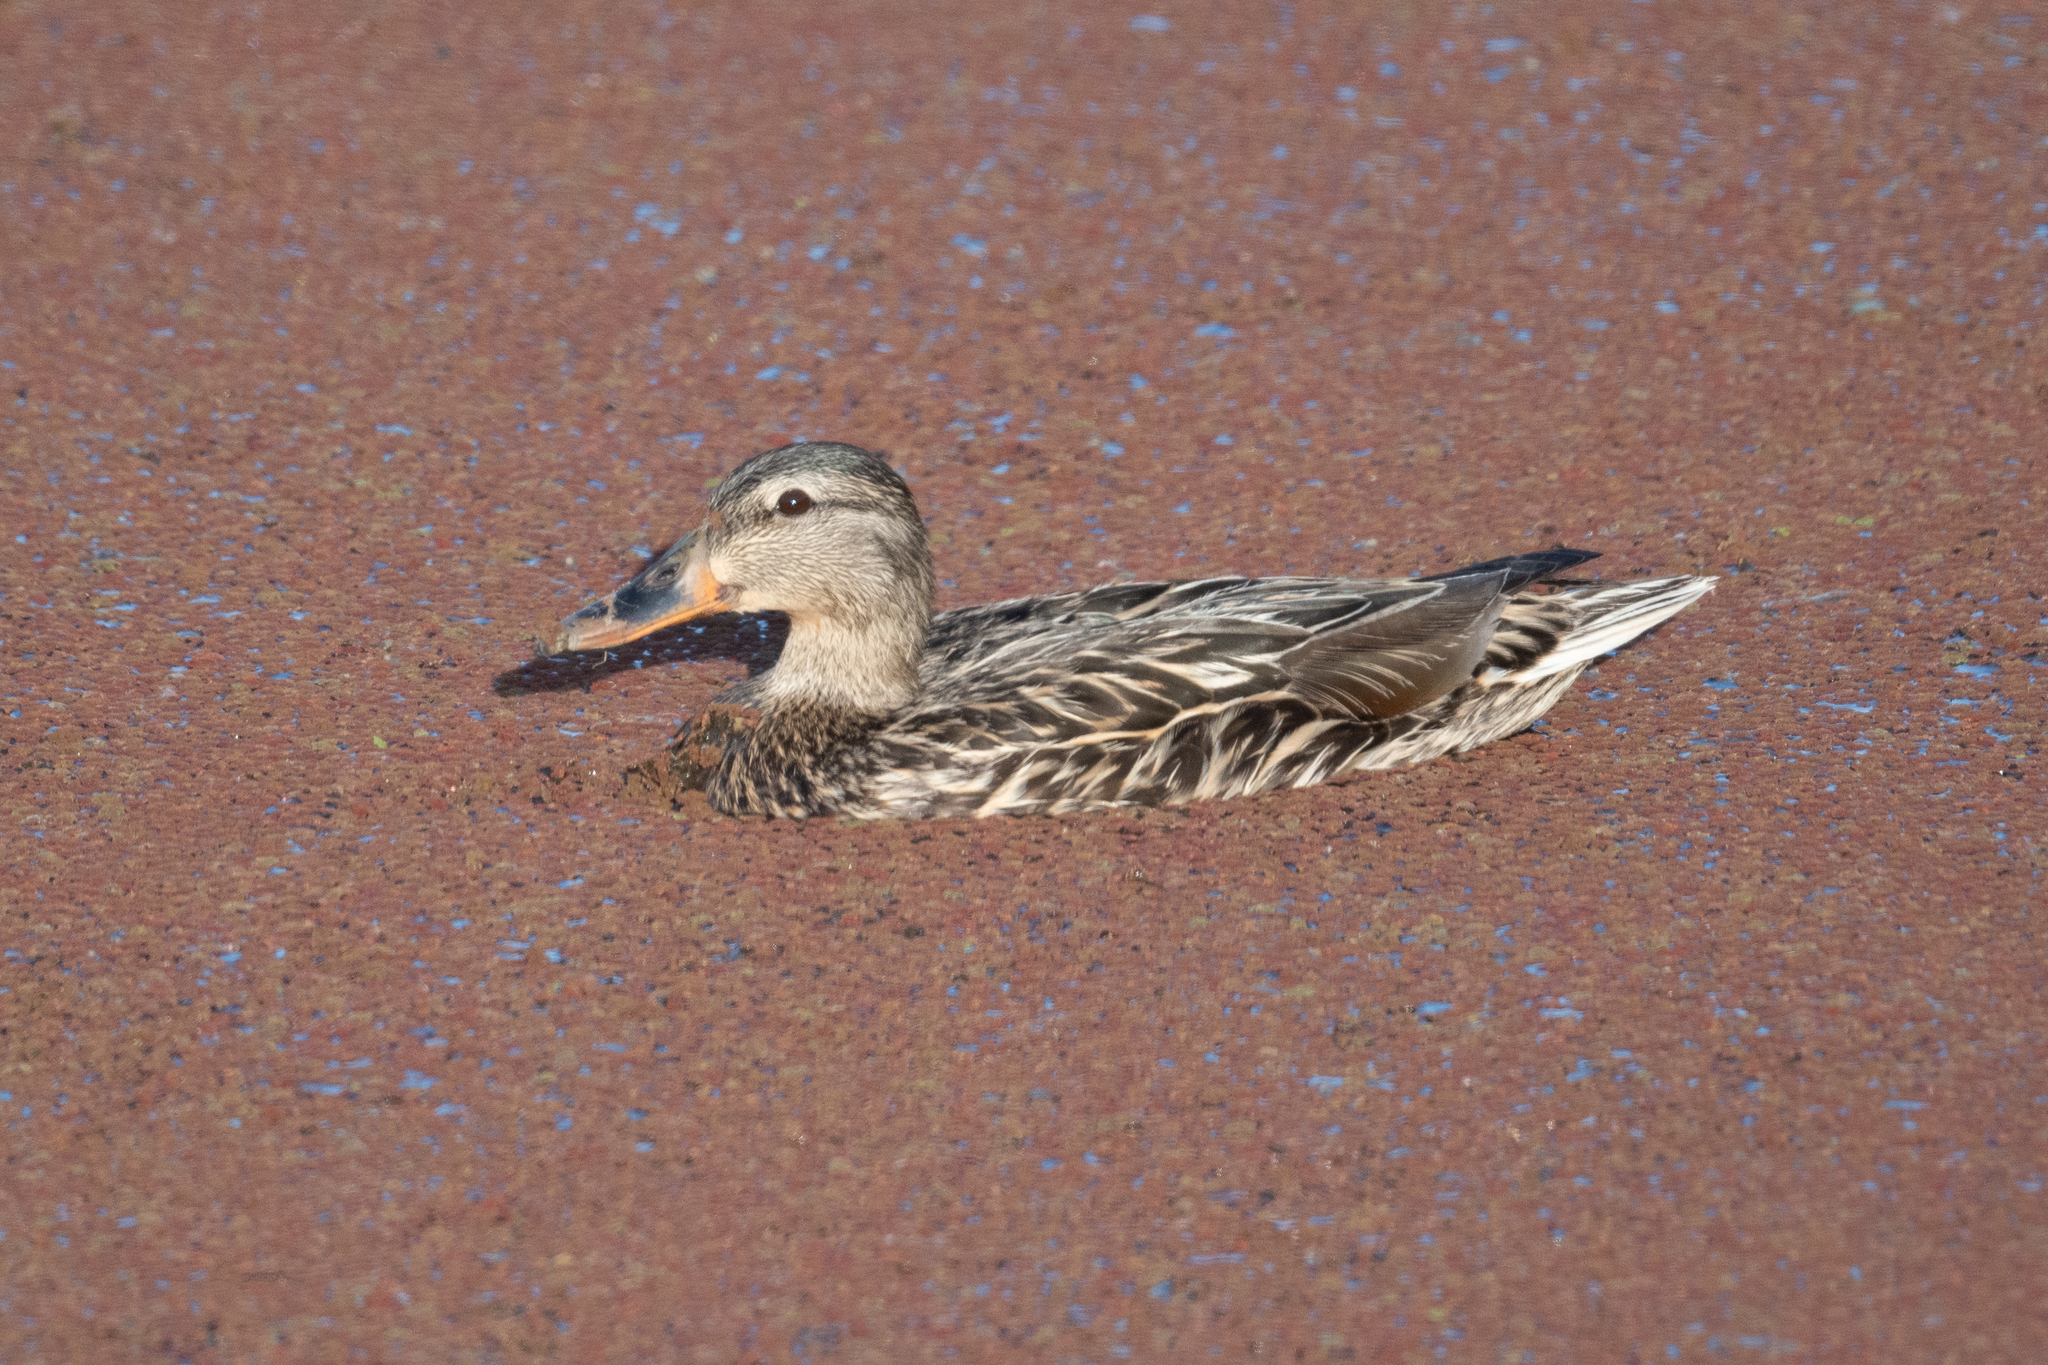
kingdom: Animalia
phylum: Chordata
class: Aves
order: Anseriformes
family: Anatidae
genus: Anas
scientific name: Anas platyrhynchos
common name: Mallard
